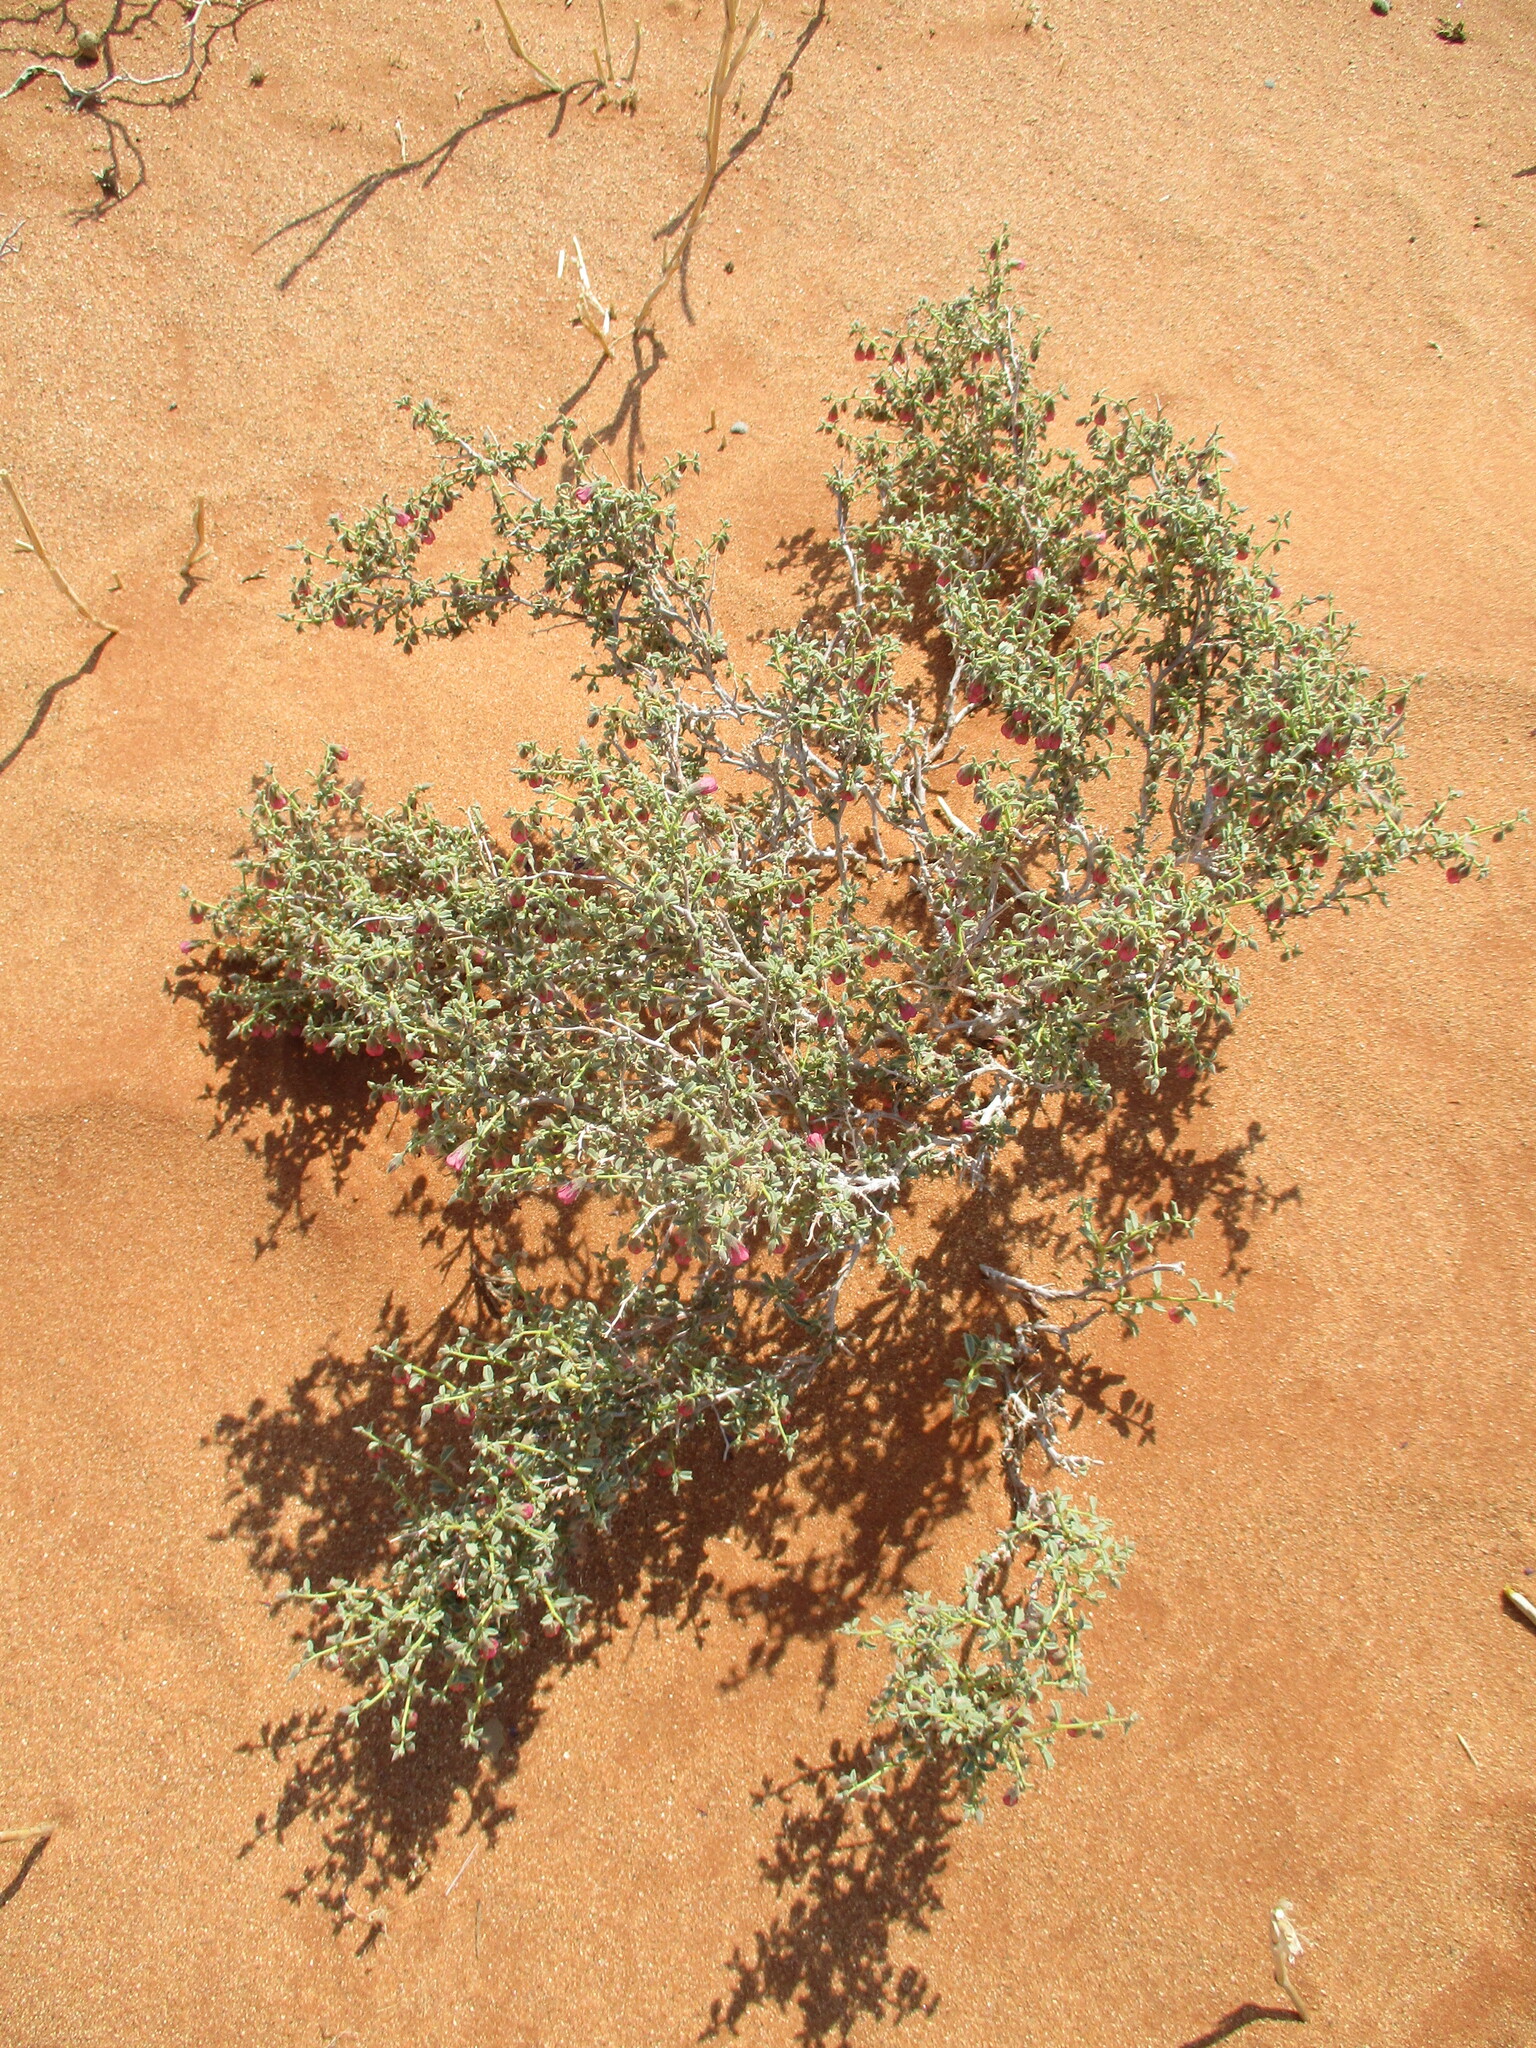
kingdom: Plantae
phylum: Tracheophyta
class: Magnoliopsida
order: Malvales
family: Malvaceae
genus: Hermannia
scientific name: Hermannia gariepina
